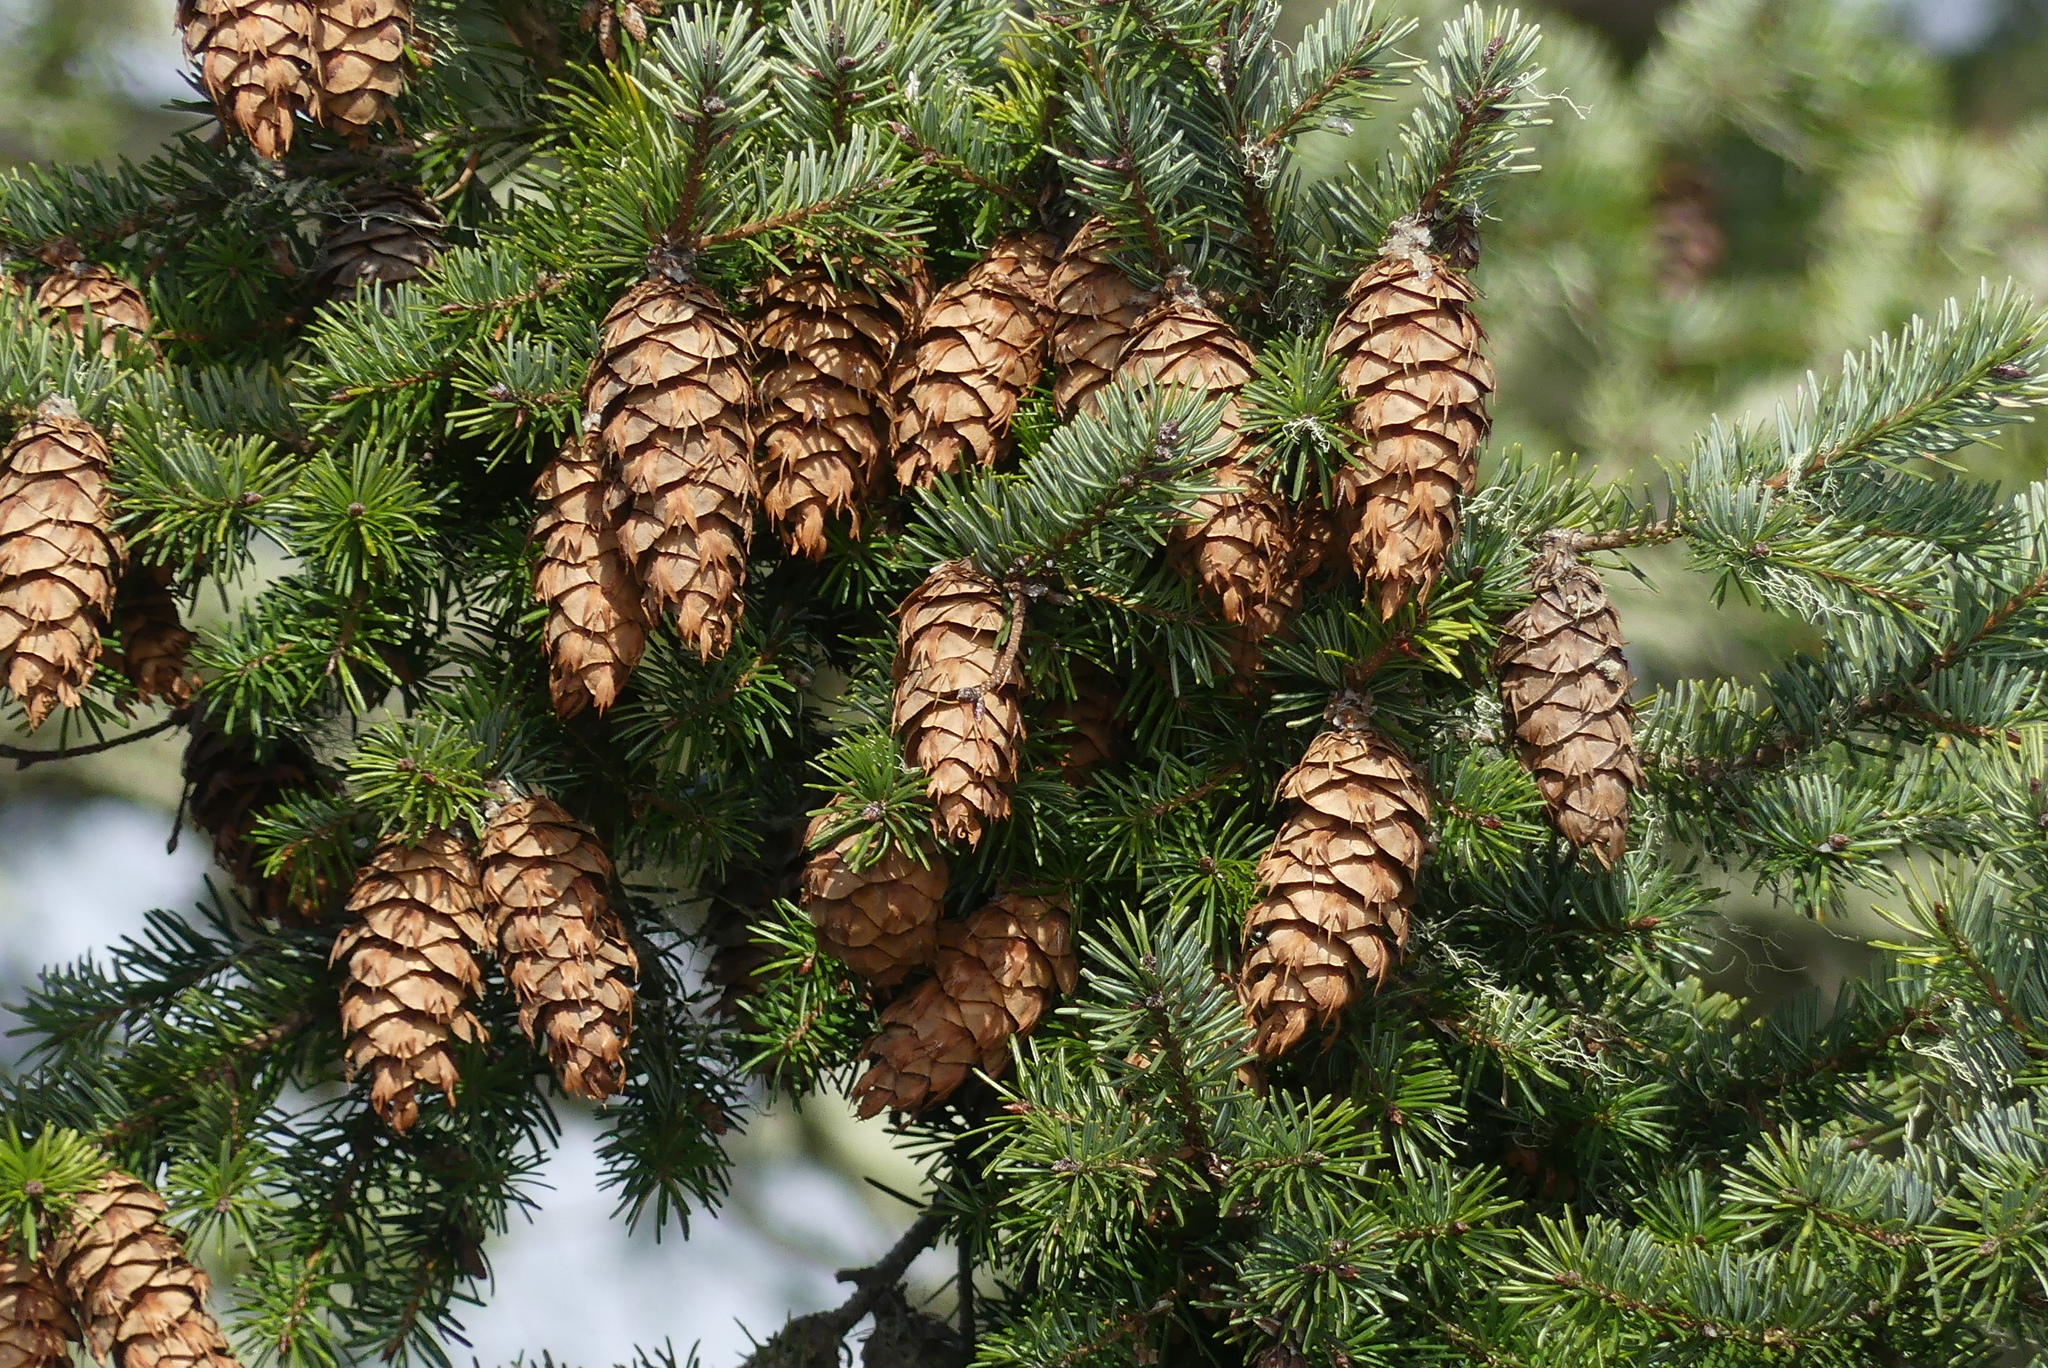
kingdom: Plantae
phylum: Tracheophyta
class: Pinopsida
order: Pinales
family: Pinaceae
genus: Pseudotsuga
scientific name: Pseudotsuga menziesii
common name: Douglas fir
